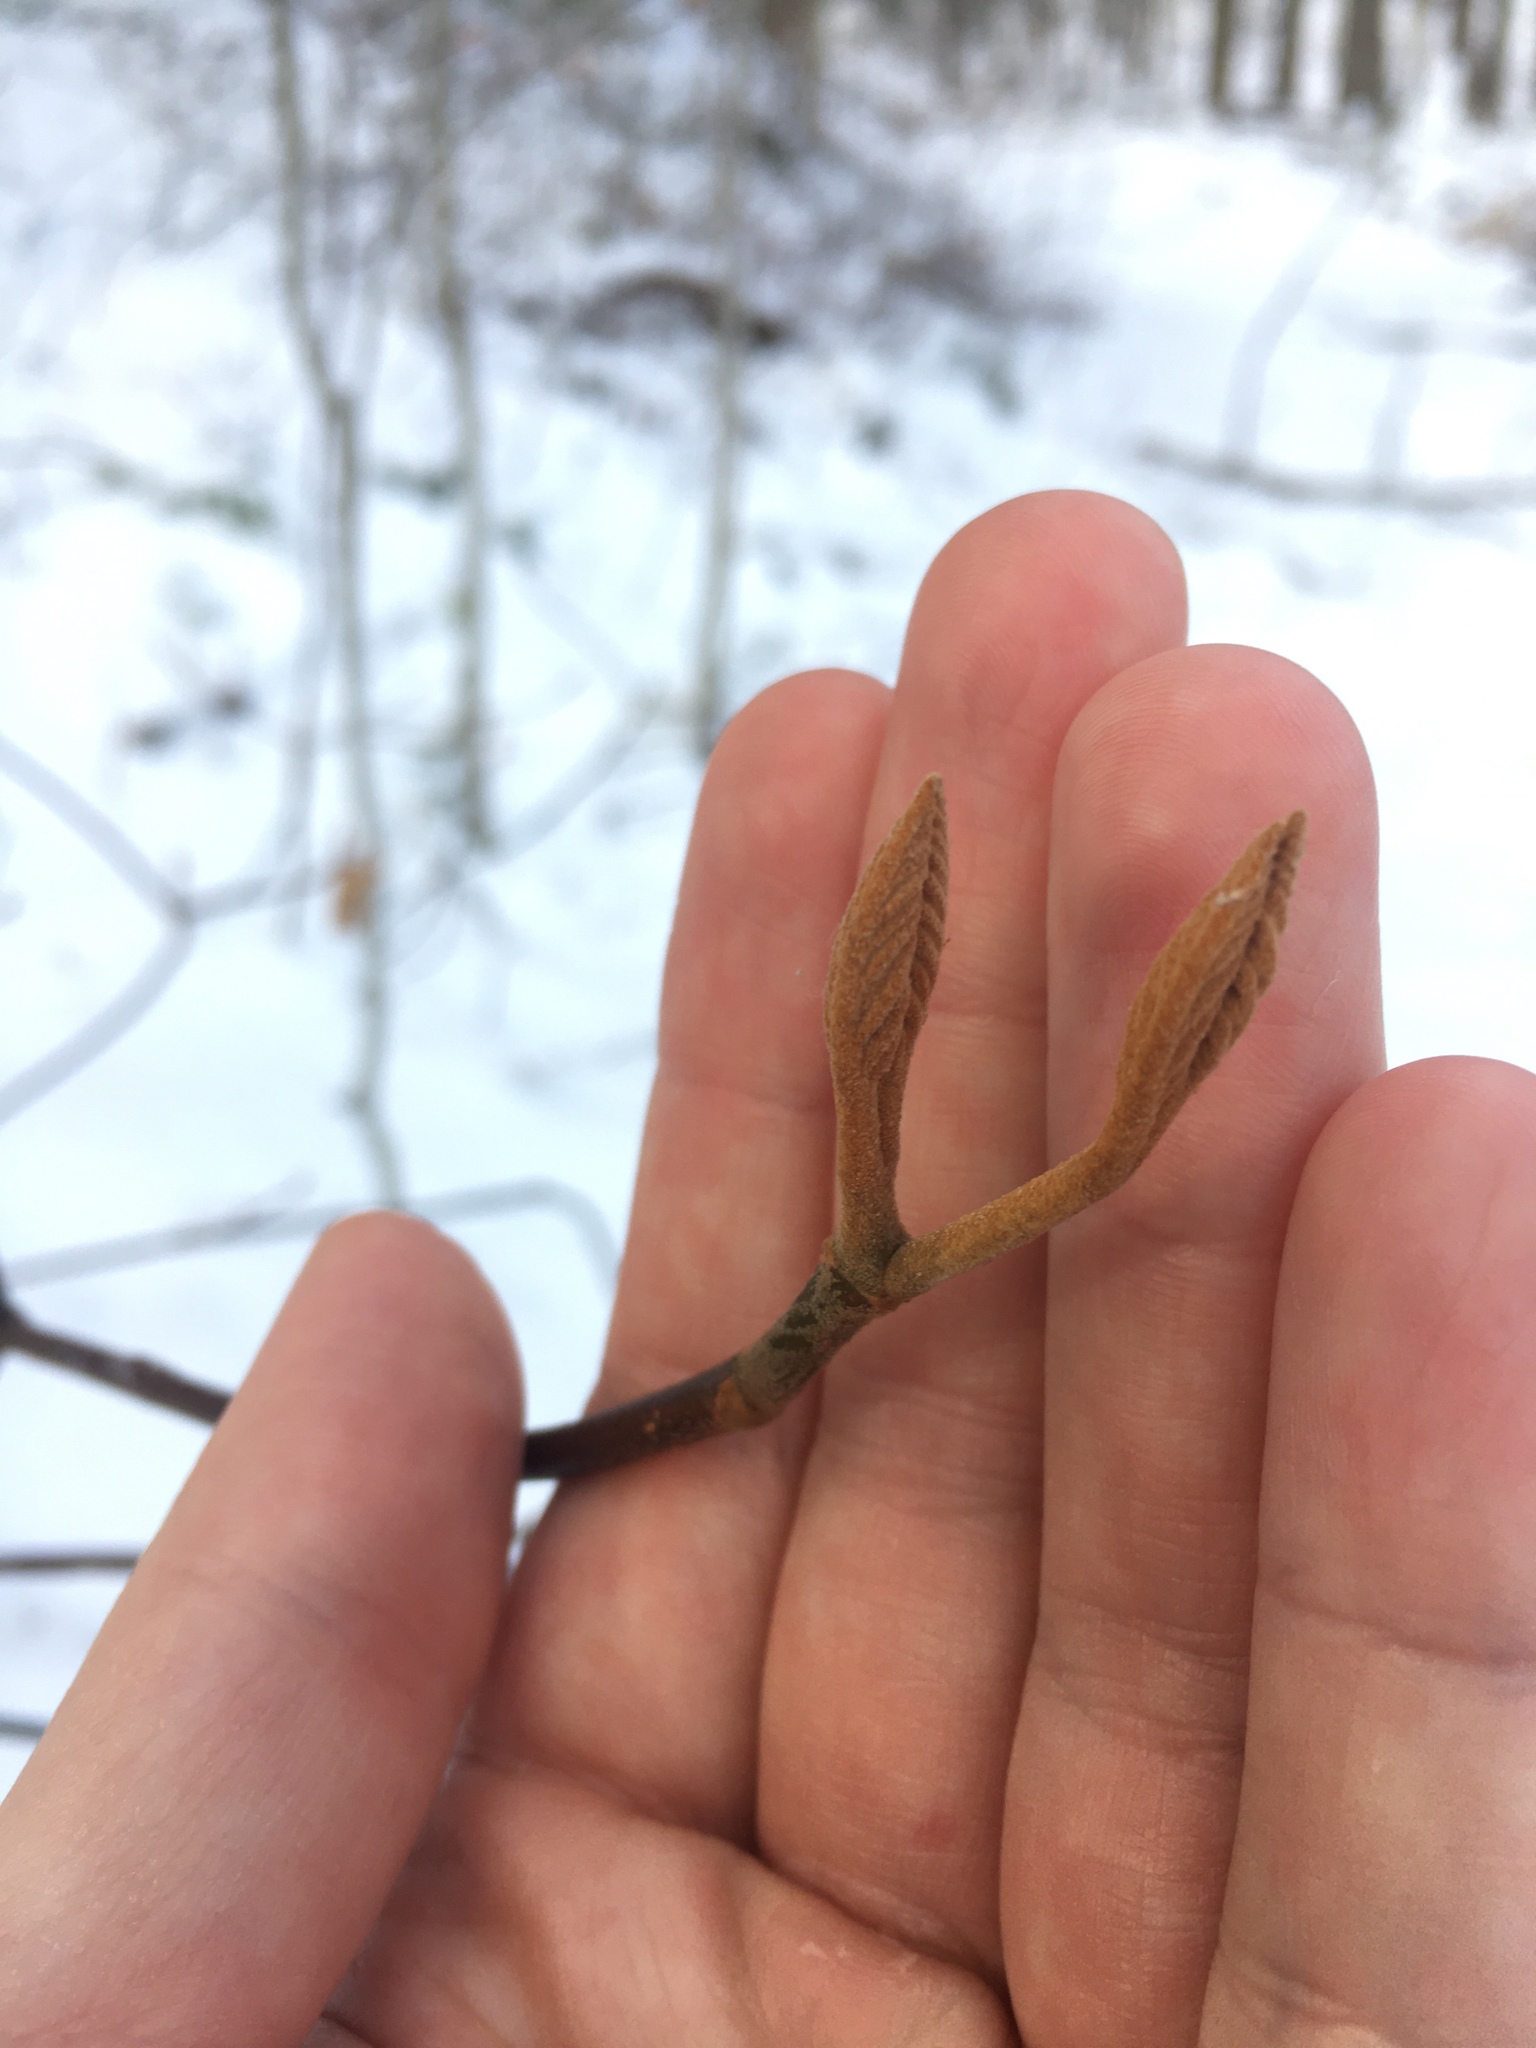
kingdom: Plantae
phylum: Tracheophyta
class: Magnoliopsida
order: Dipsacales
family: Viburnaceae
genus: Viburnum
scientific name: Viburnum lantanoides
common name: Hobblebush
